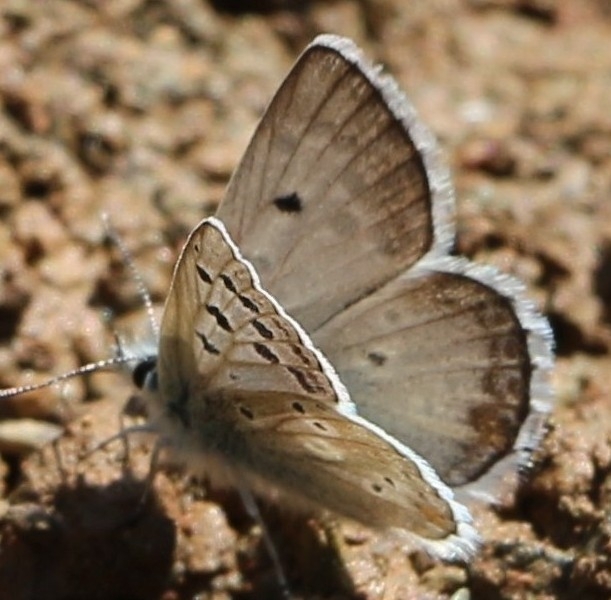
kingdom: Animalia
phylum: Arthropoda
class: Insecta
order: Lepidoptera
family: Lycaenidae
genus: Agriades
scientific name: Agriades pyrenaica
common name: Gavarnie blue
